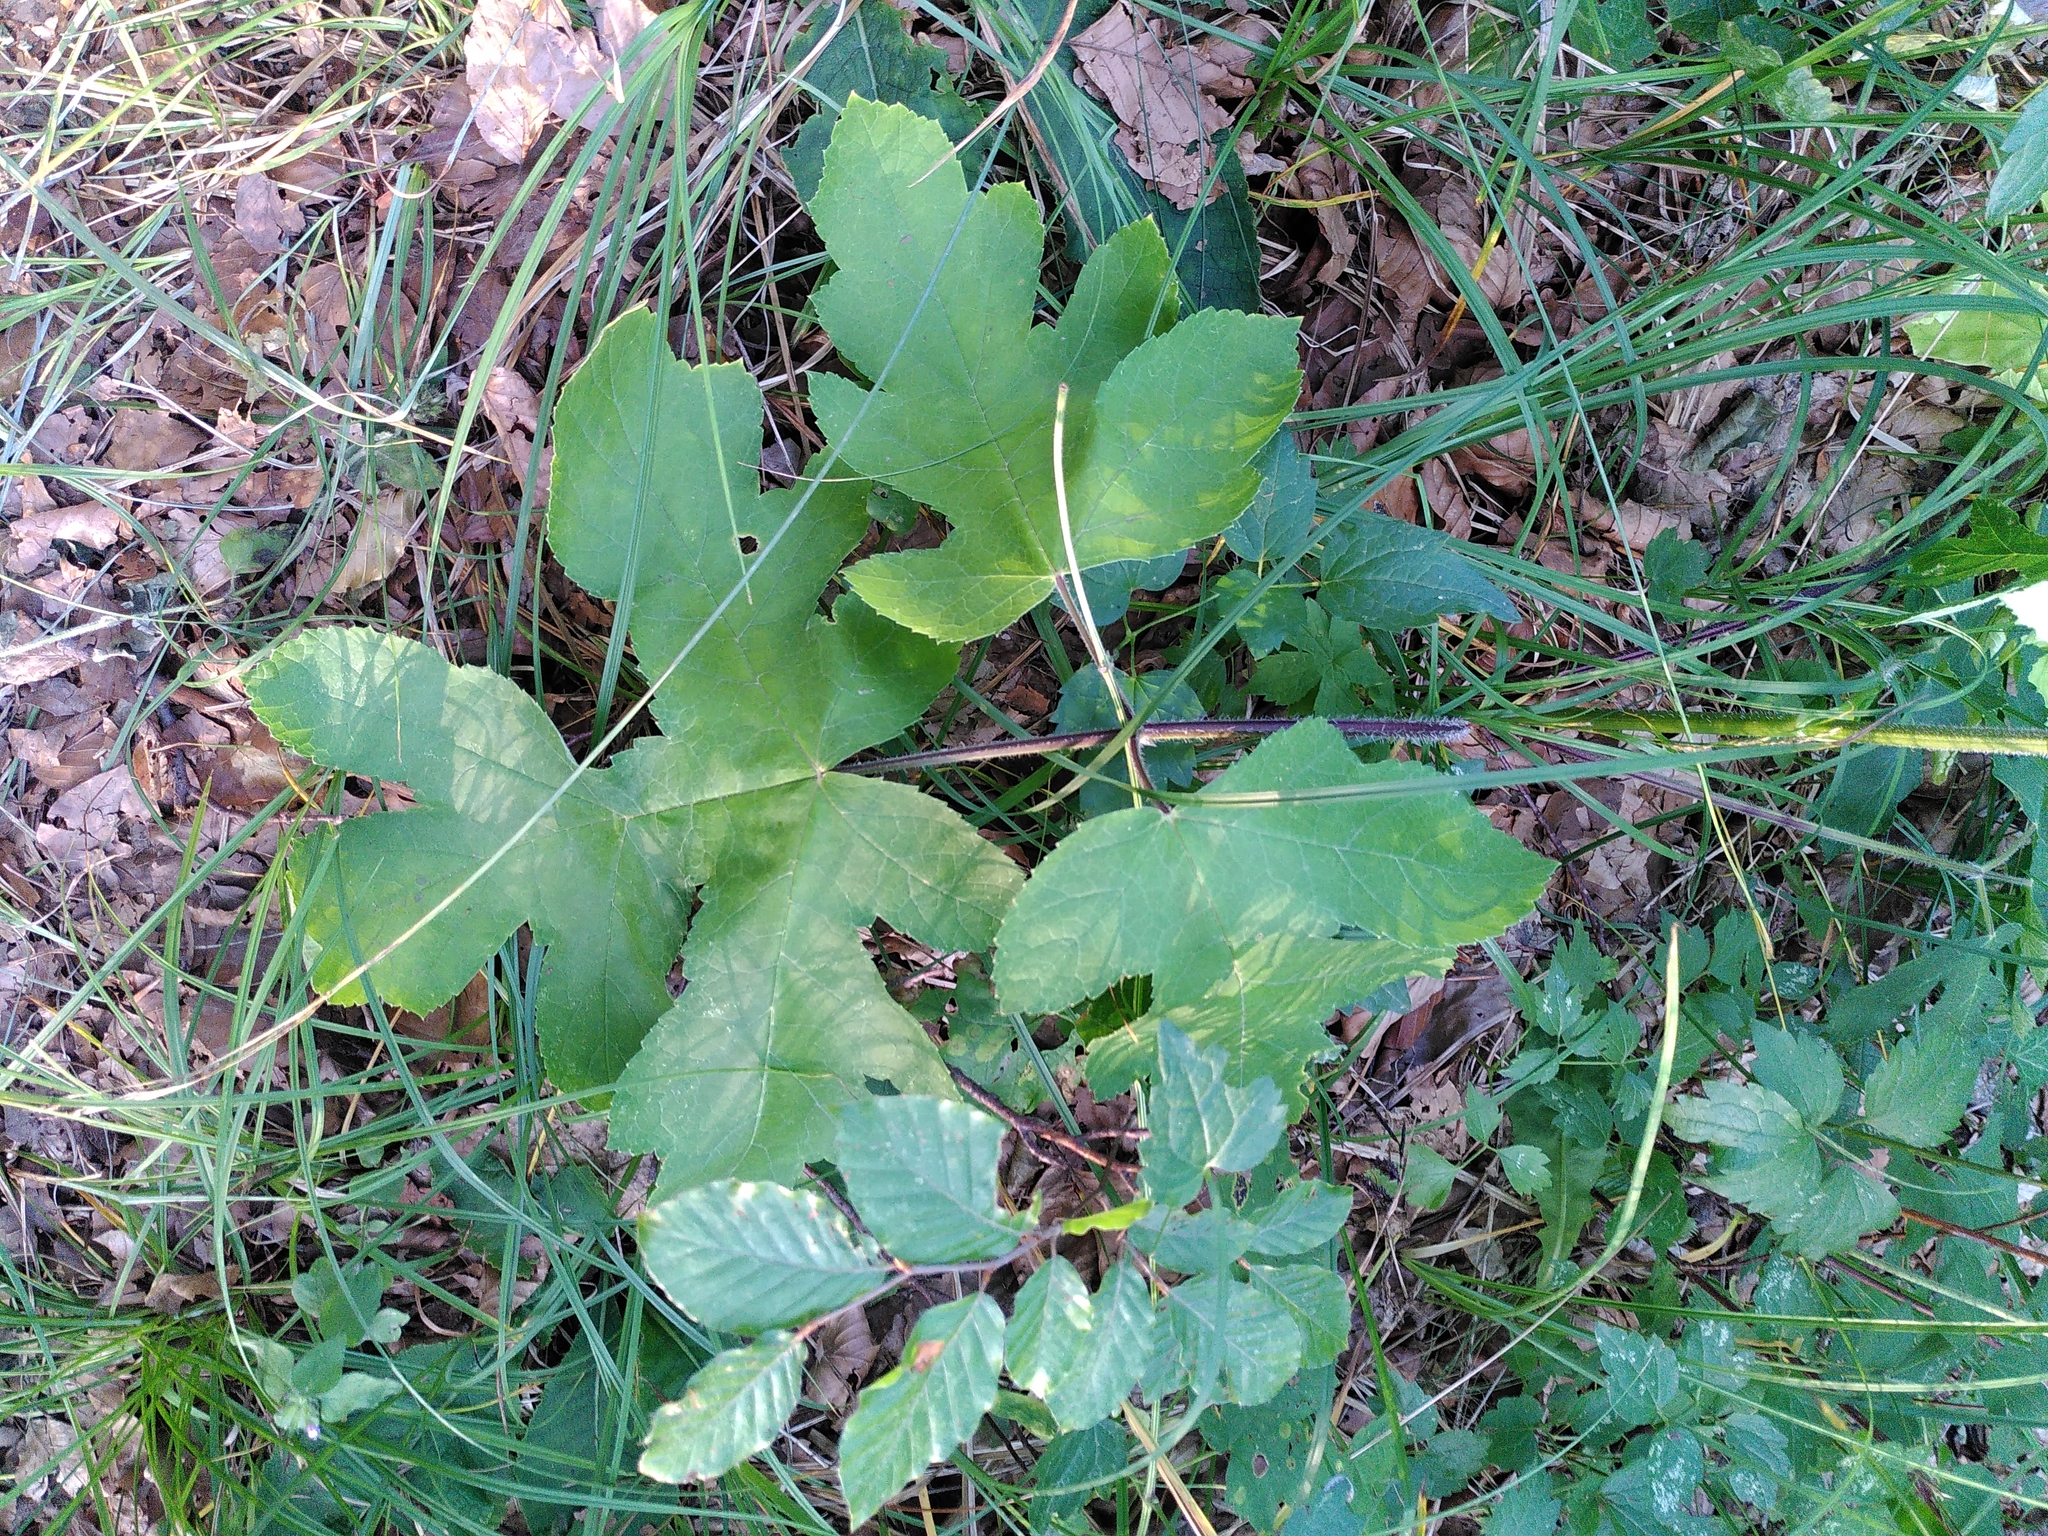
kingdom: Plantae
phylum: Tracheophyta
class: Magnoliopsida
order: Apiales
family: Apiaceae
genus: Heracleum
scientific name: Heracleum sphondylium
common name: Hogweed
